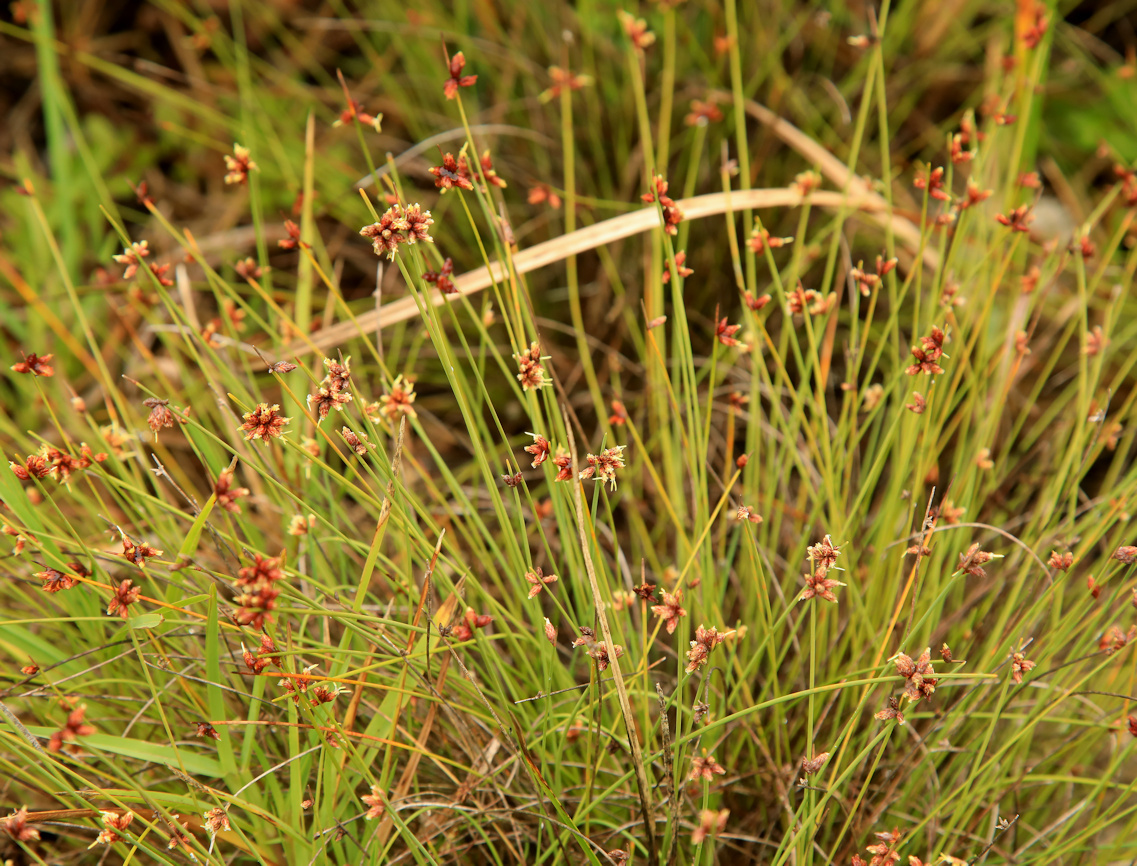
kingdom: Plantae
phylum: Tracheophyta
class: Liliopsida
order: Poales
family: Cyperaceae
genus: Ficinia
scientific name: Ficinia lateralis
